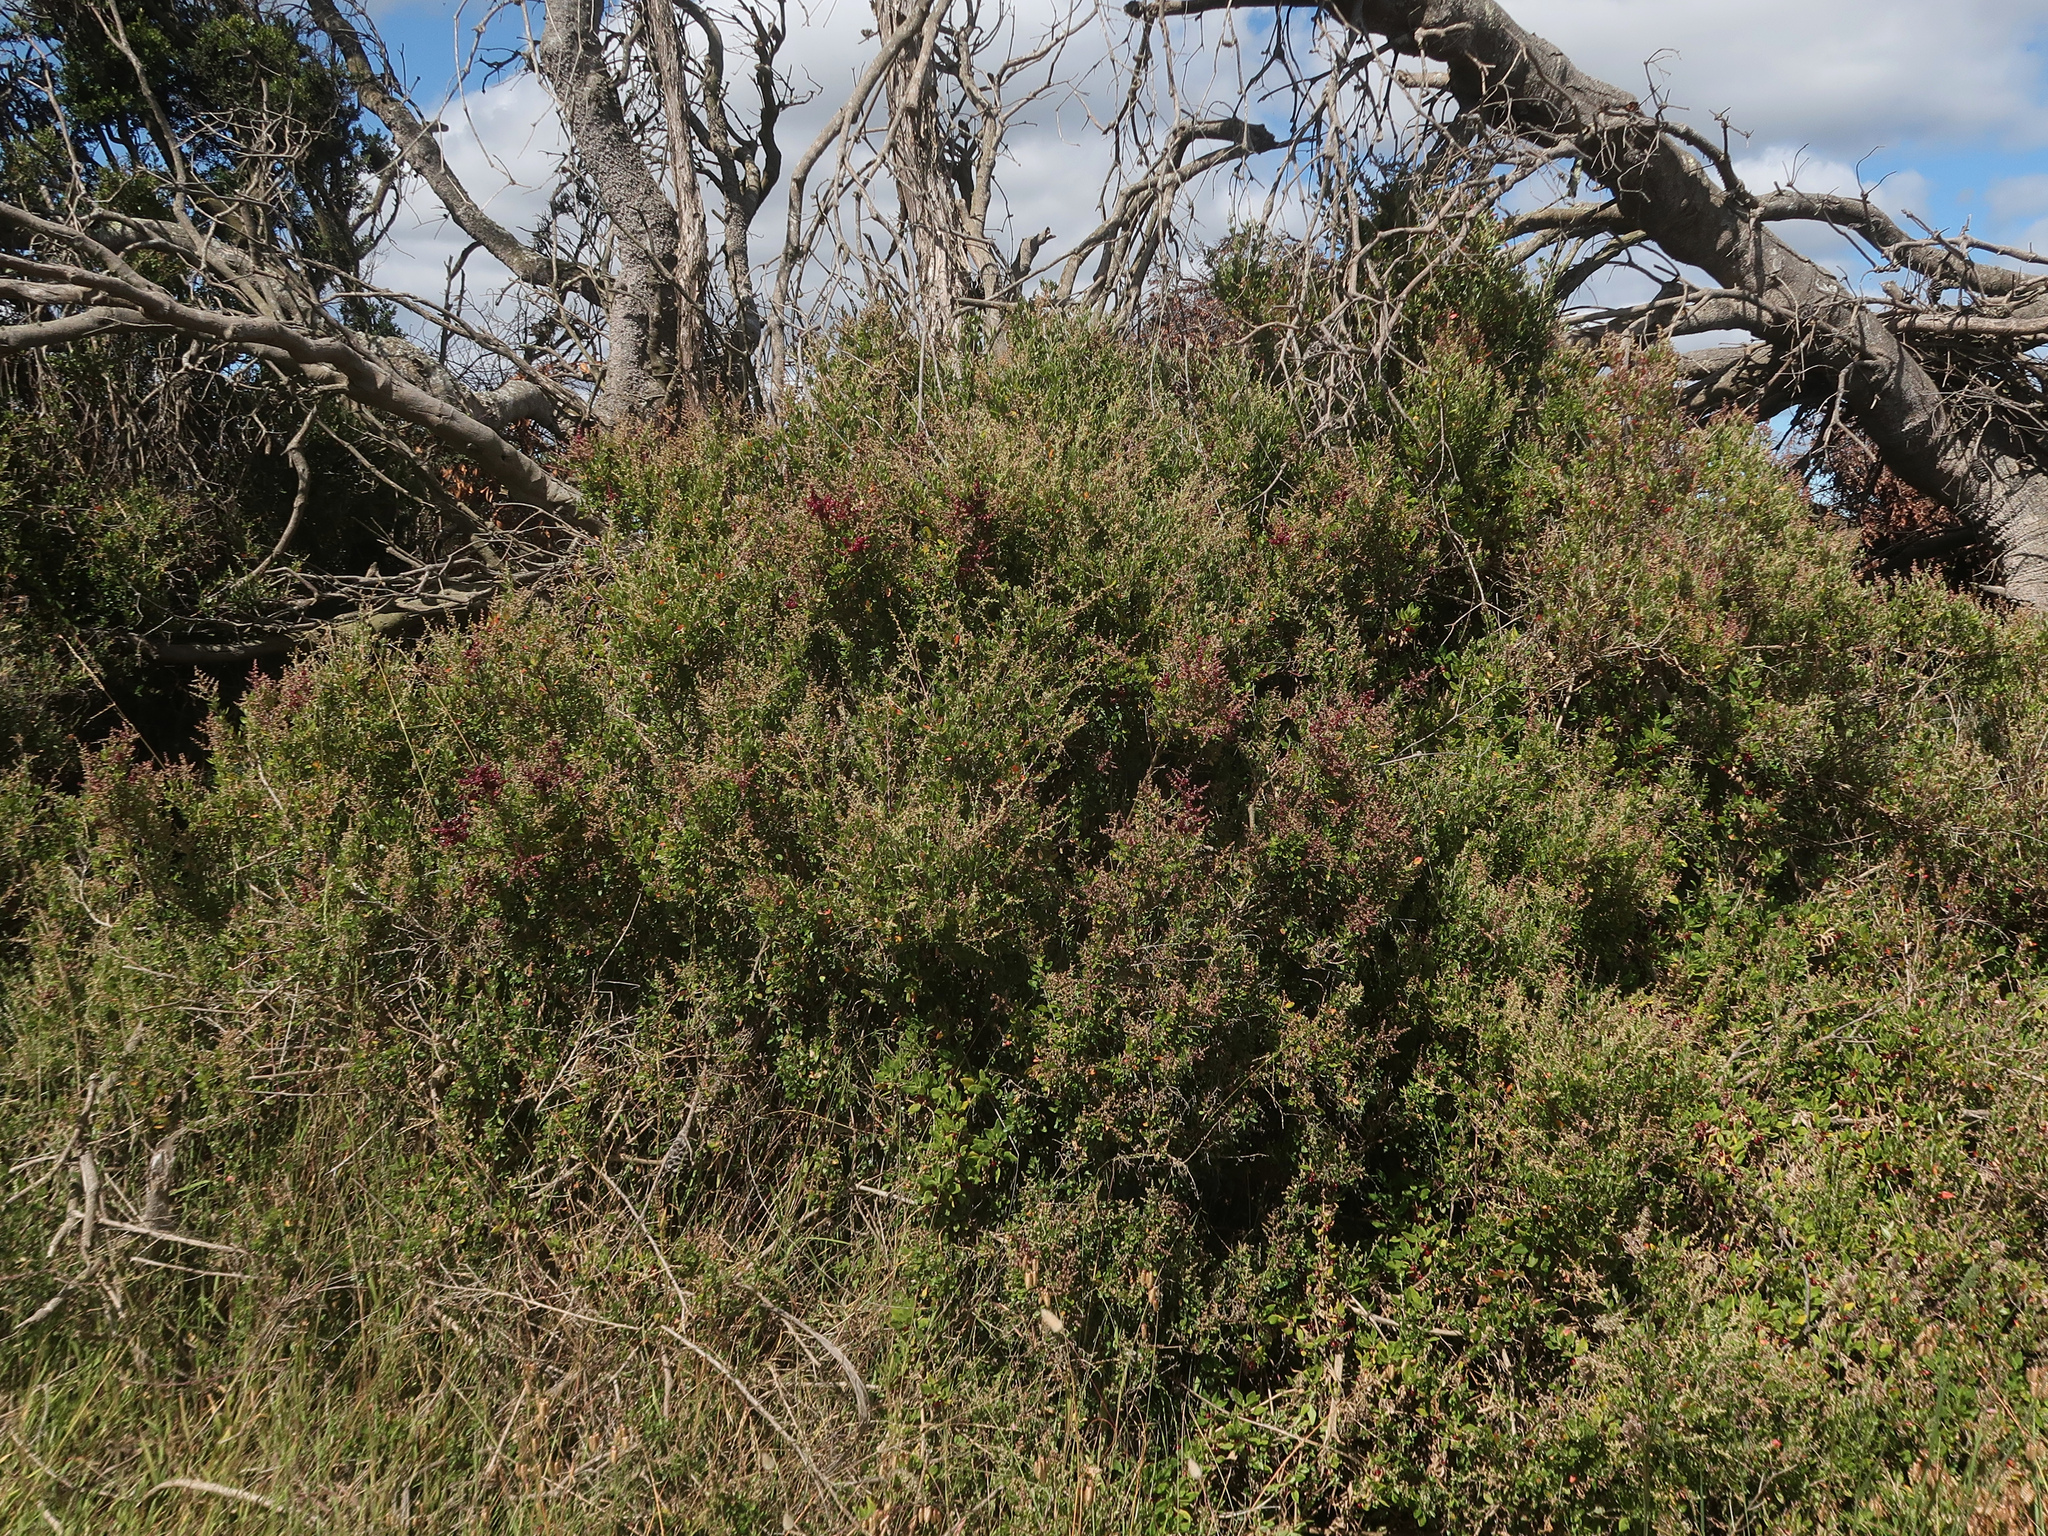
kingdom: Plantae
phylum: Tracheophyta
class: Magnoliopsida
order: Caryophyllales
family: Amaranthaceae
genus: Chenopodium
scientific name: Chenopodium candolleanum
